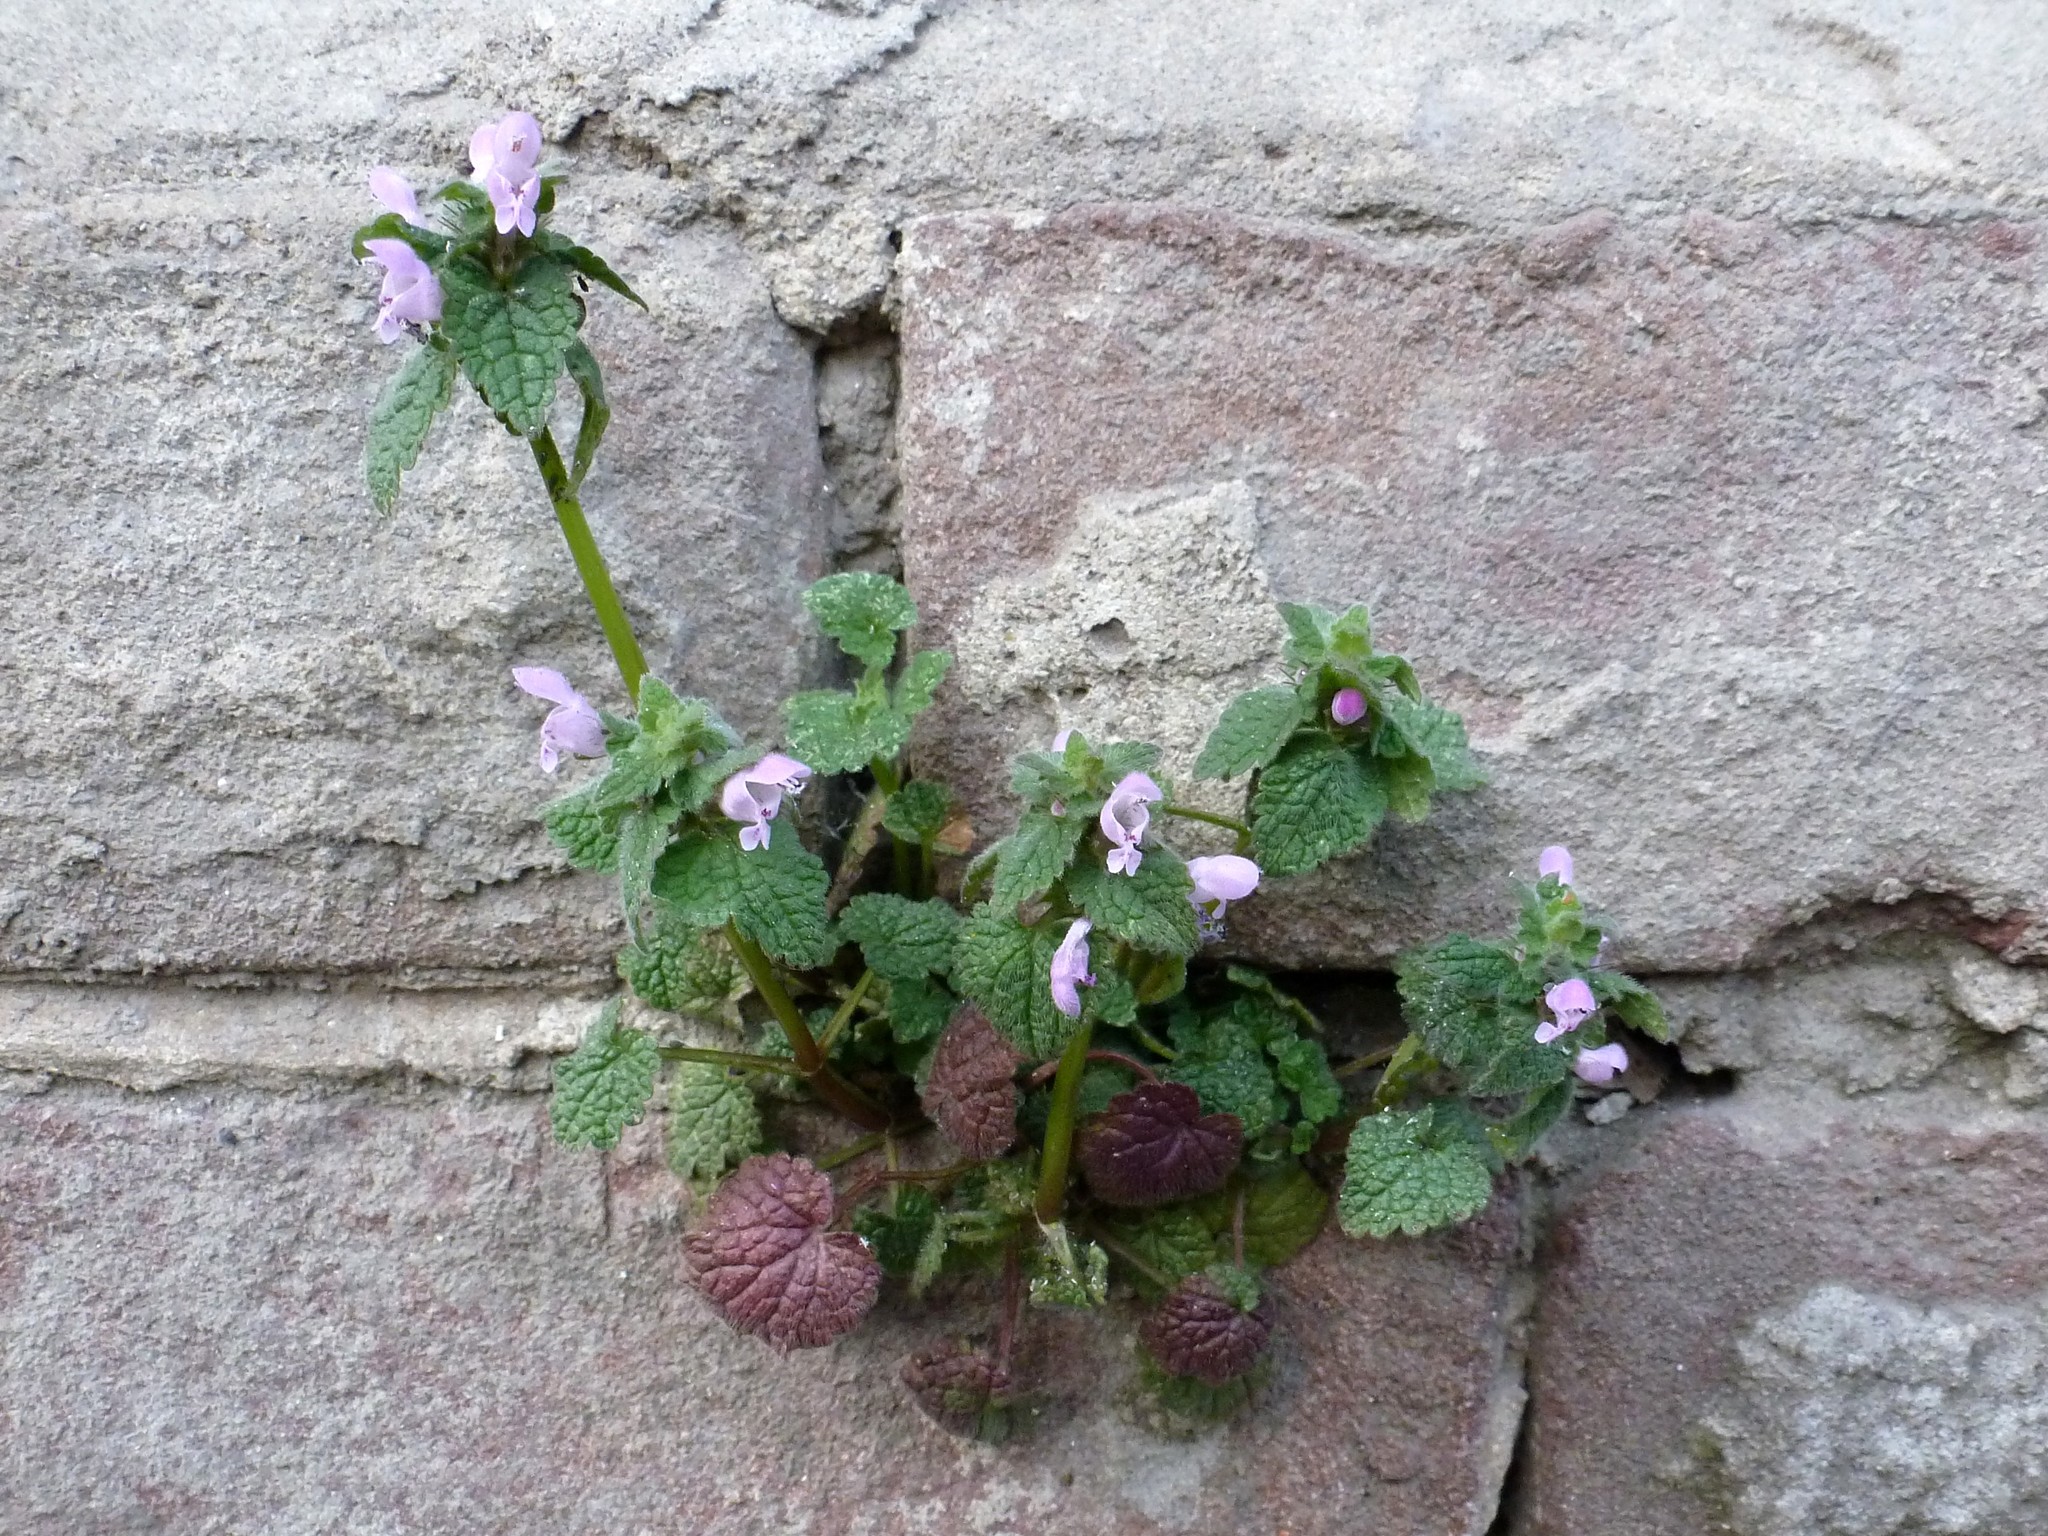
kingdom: Plantae
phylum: Tracheophyta
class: Magnoliopsida
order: Lamiales
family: Lamiaceae
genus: Lamium
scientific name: Lamium purpureum
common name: Red dead-nettle
